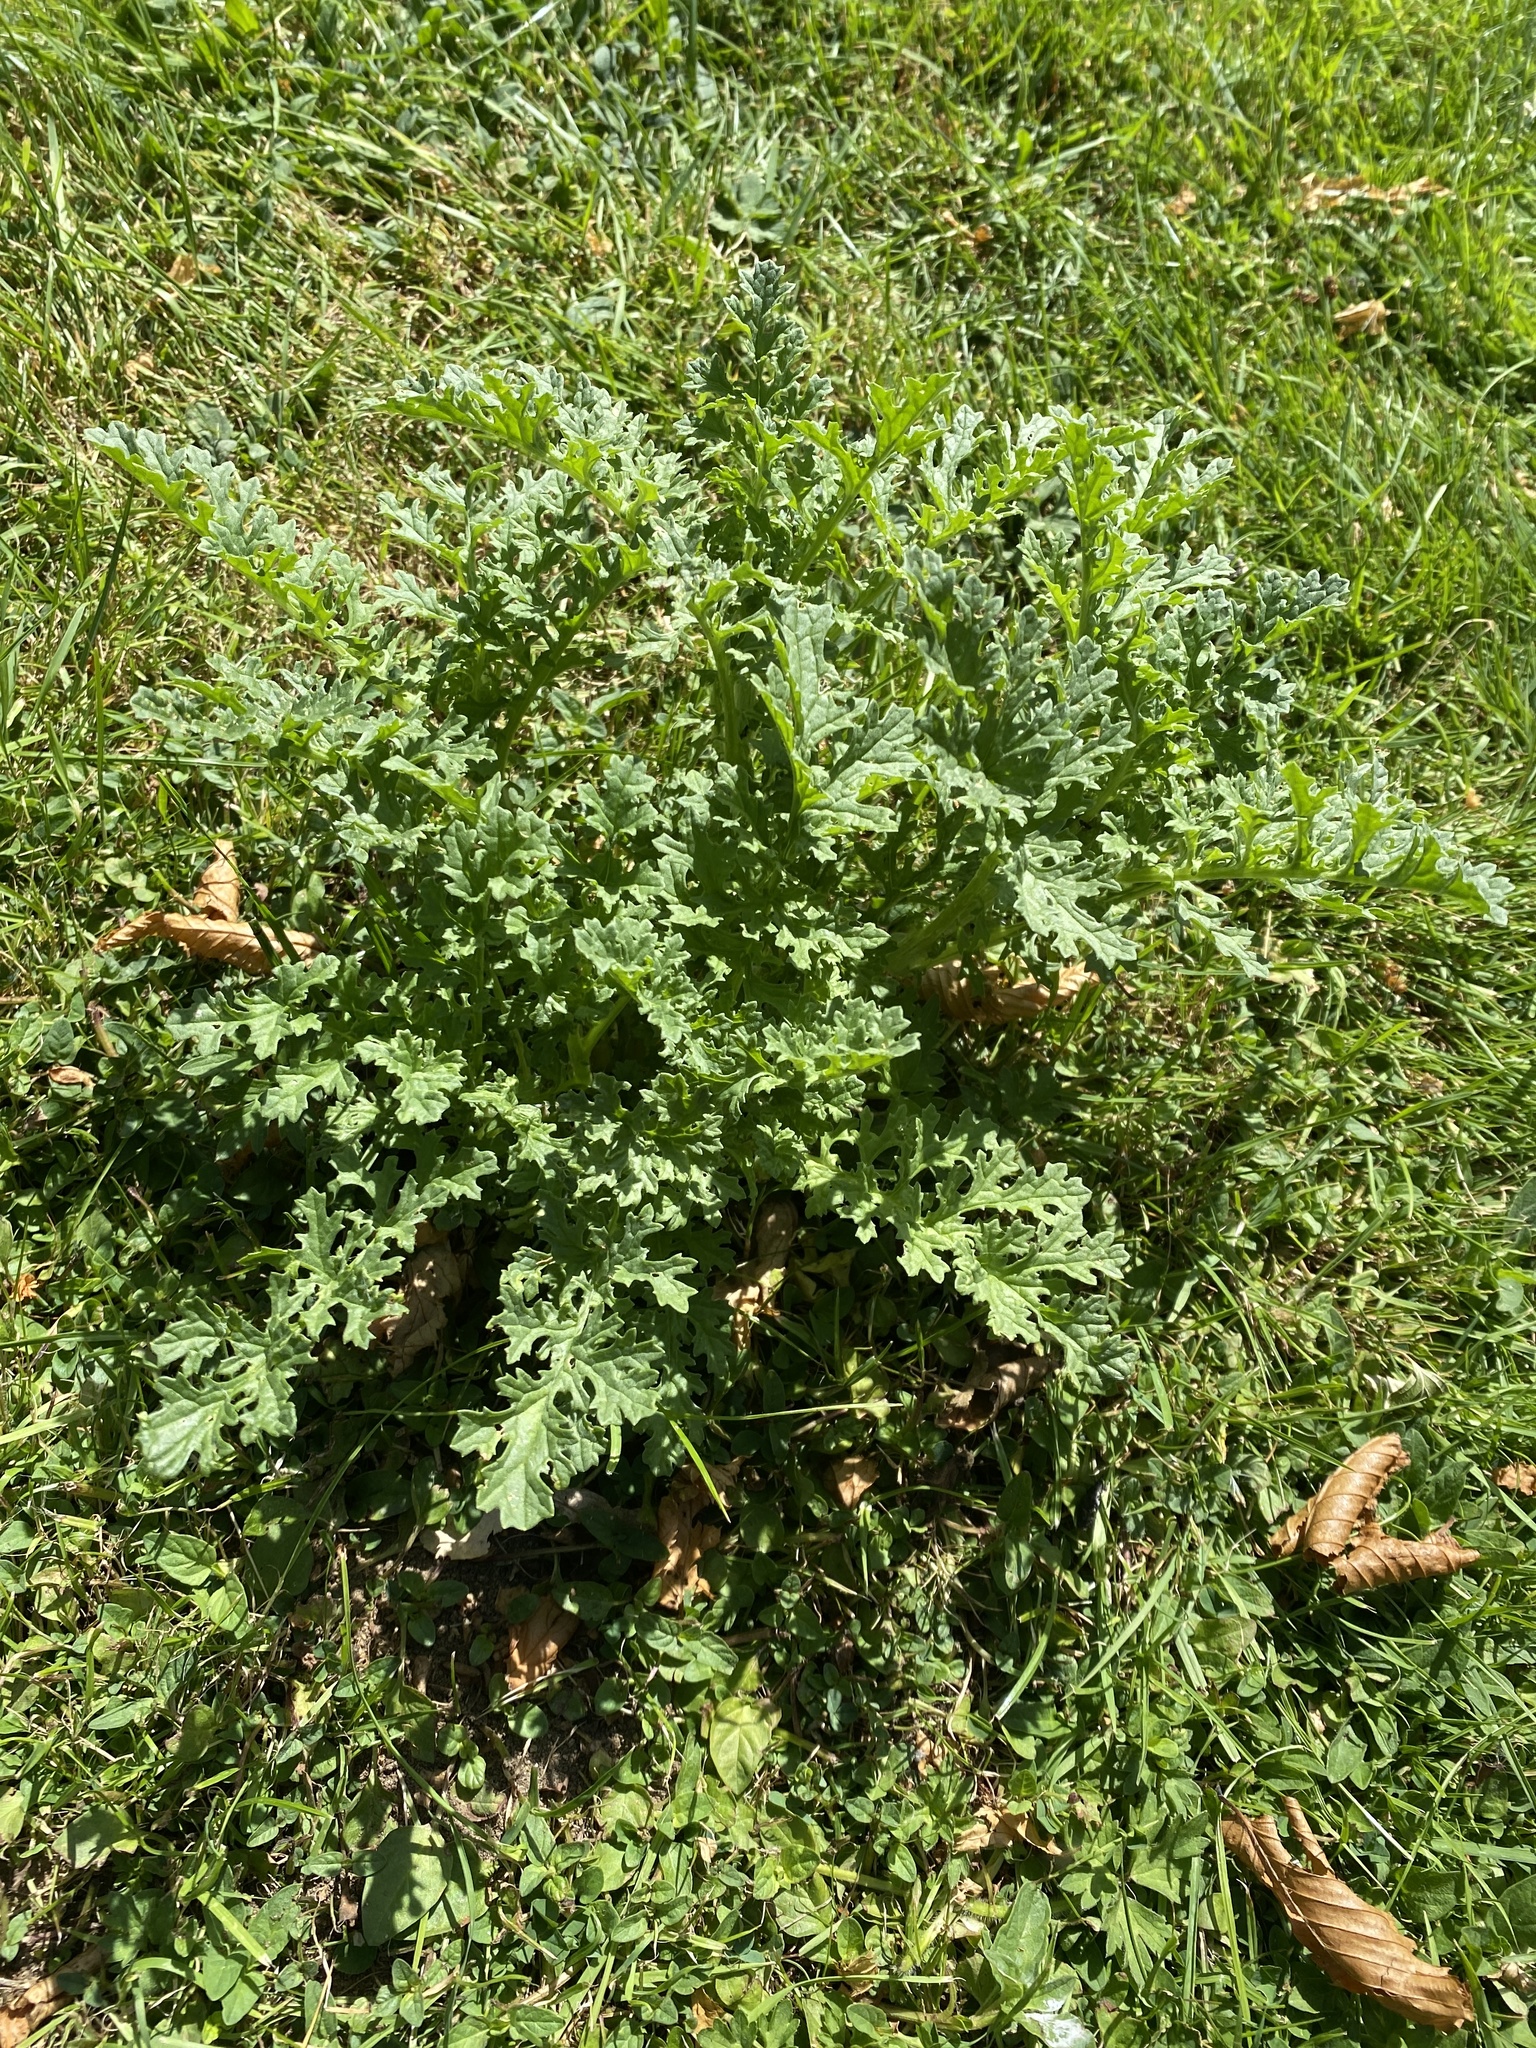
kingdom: Plantae
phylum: Tracheophyta
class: Magnoliopsida
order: Asterales
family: Asteraceae
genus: Jacobaea
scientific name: Jacobaea vulgaris
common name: Stinking willie
